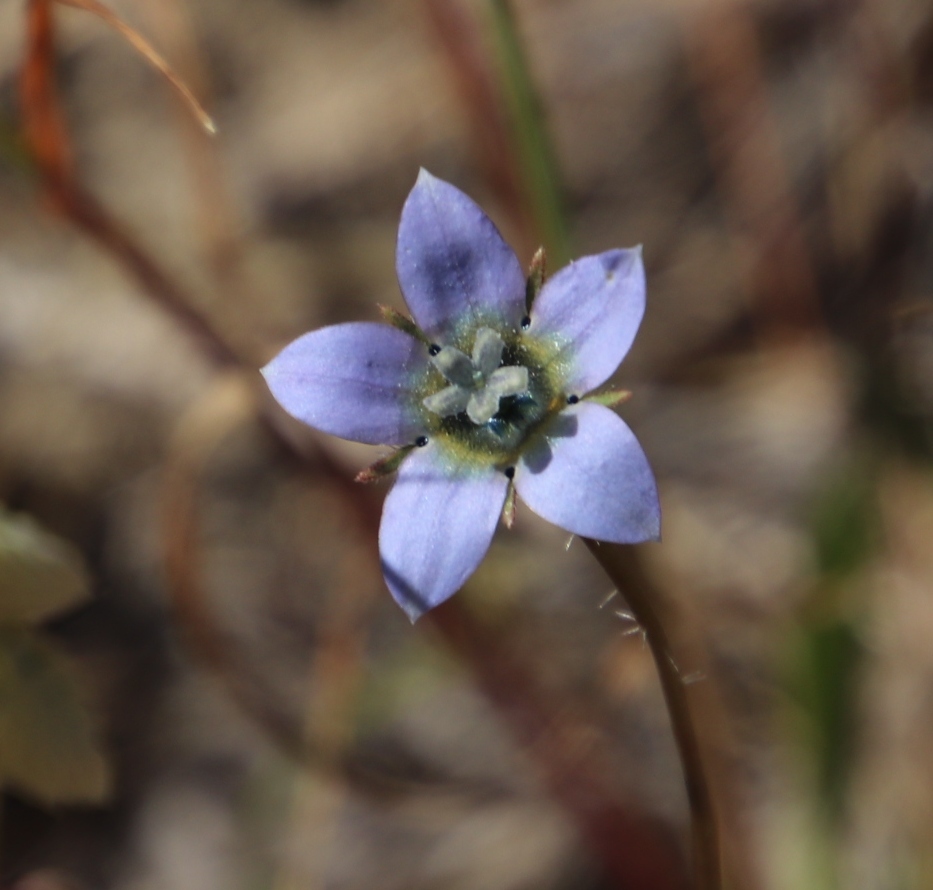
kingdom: Plantae
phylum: Tracheophyta
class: Magnoliopsida
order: Asterales
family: Campanulaceae
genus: Wahlenbergia
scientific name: Wahlenbergia capensis
